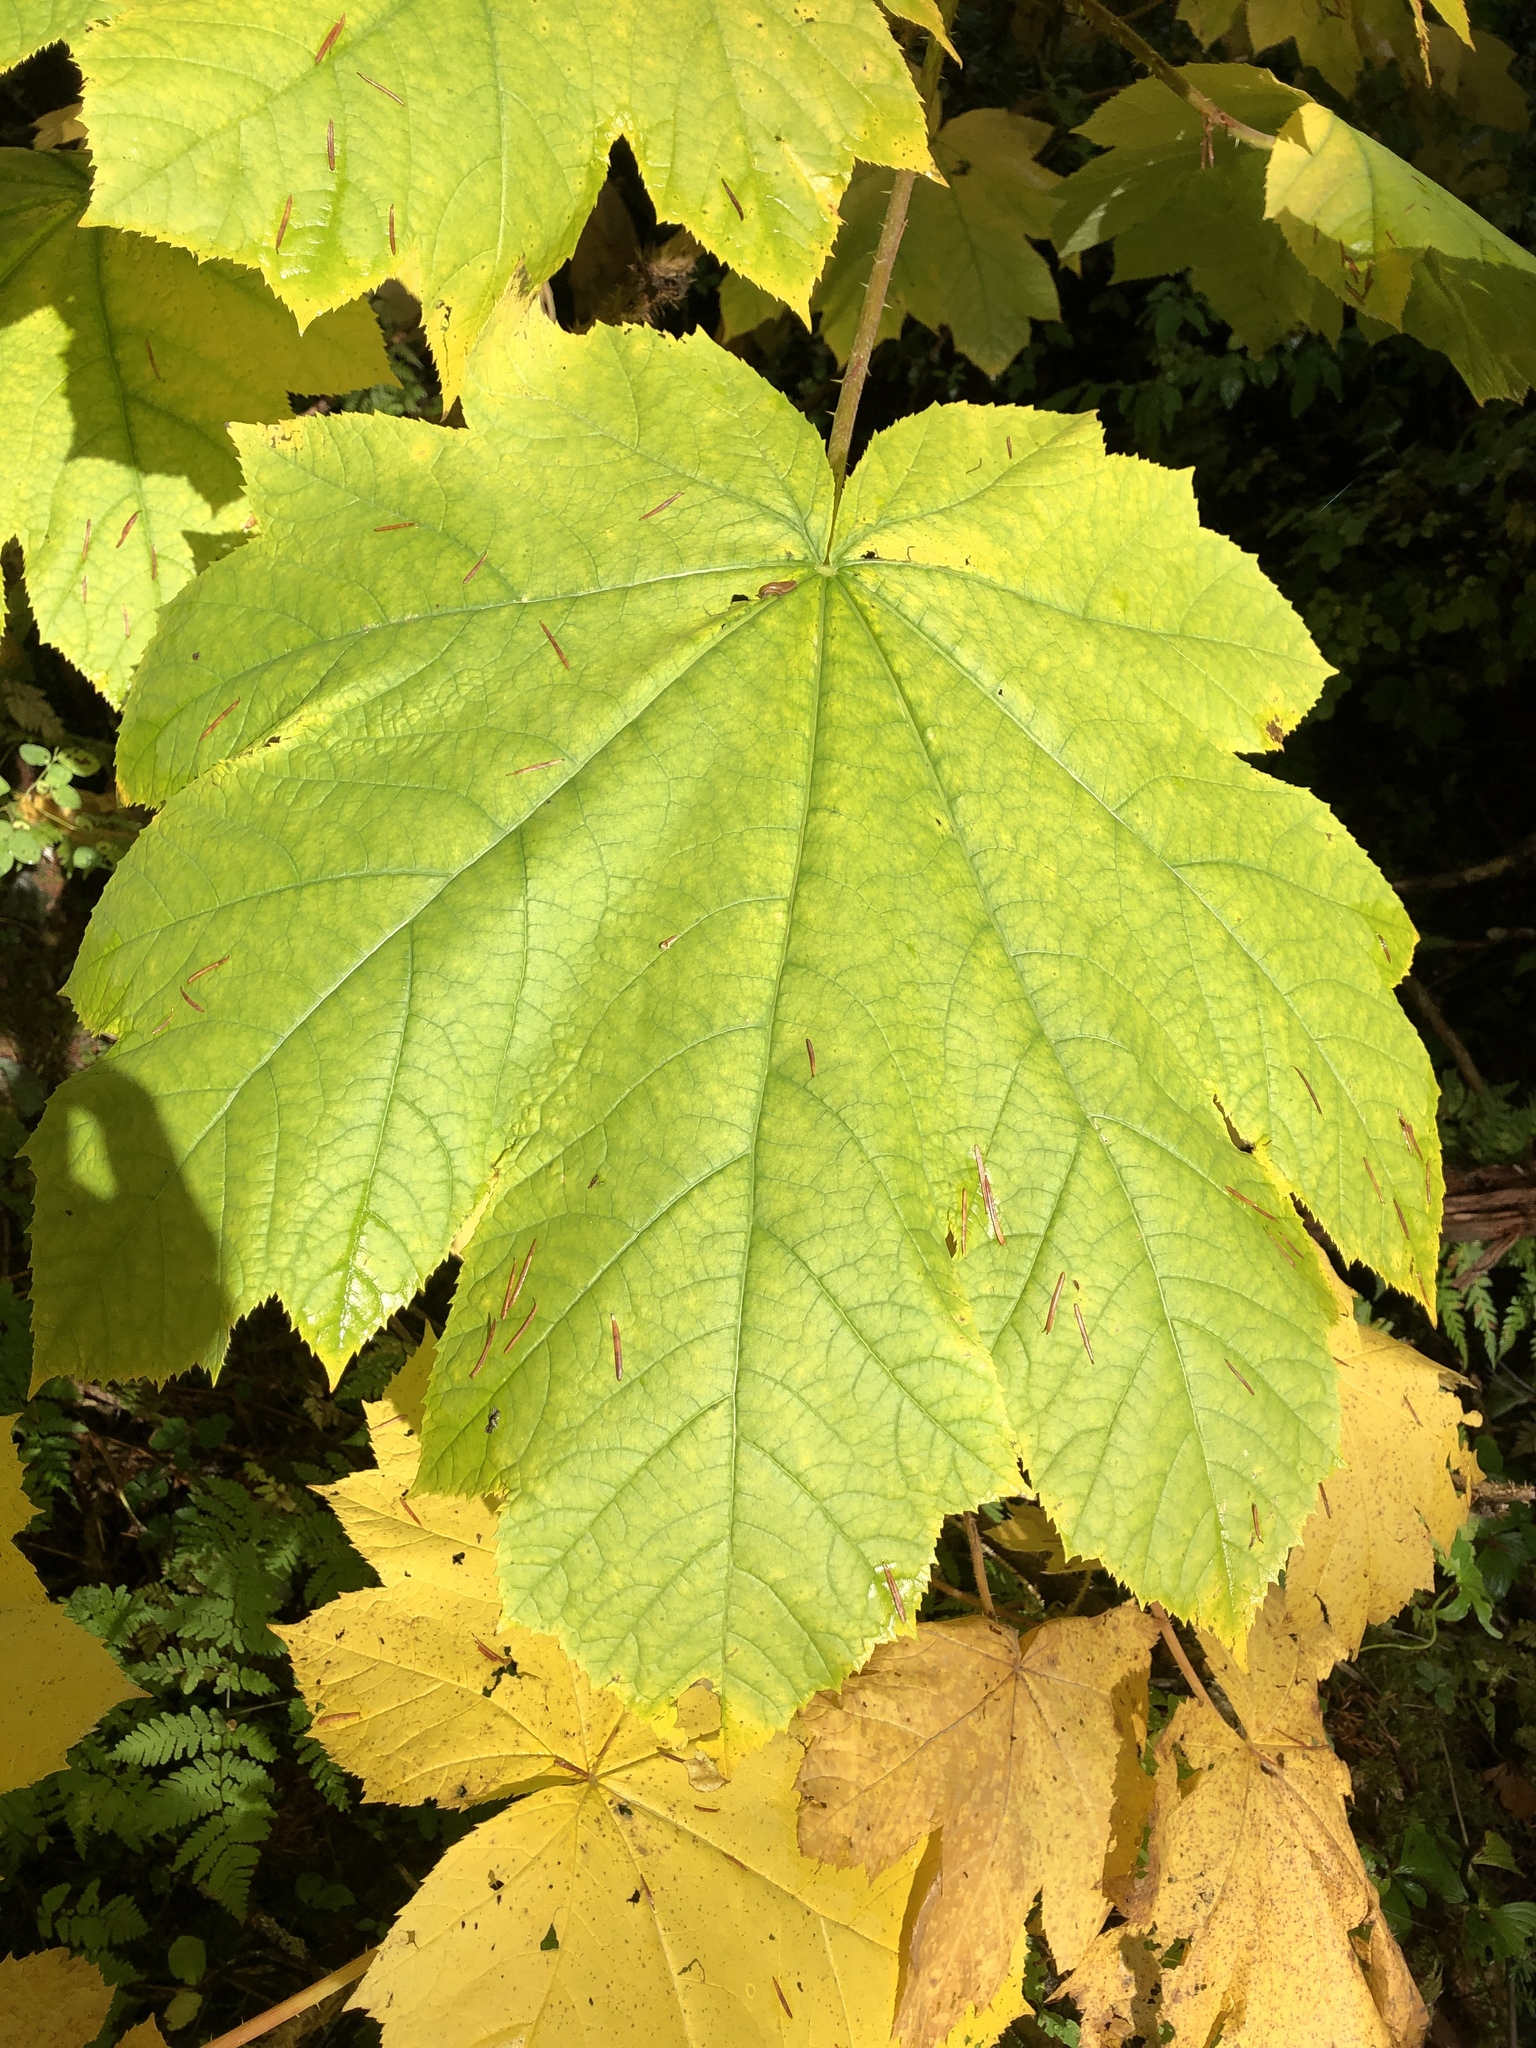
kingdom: Plantae
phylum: Tracheophyta
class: Magnoliopsida
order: Apiales
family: Araliaceae
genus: Oplopanax
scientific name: Oplopanax horridus
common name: Devil's walking-stick
